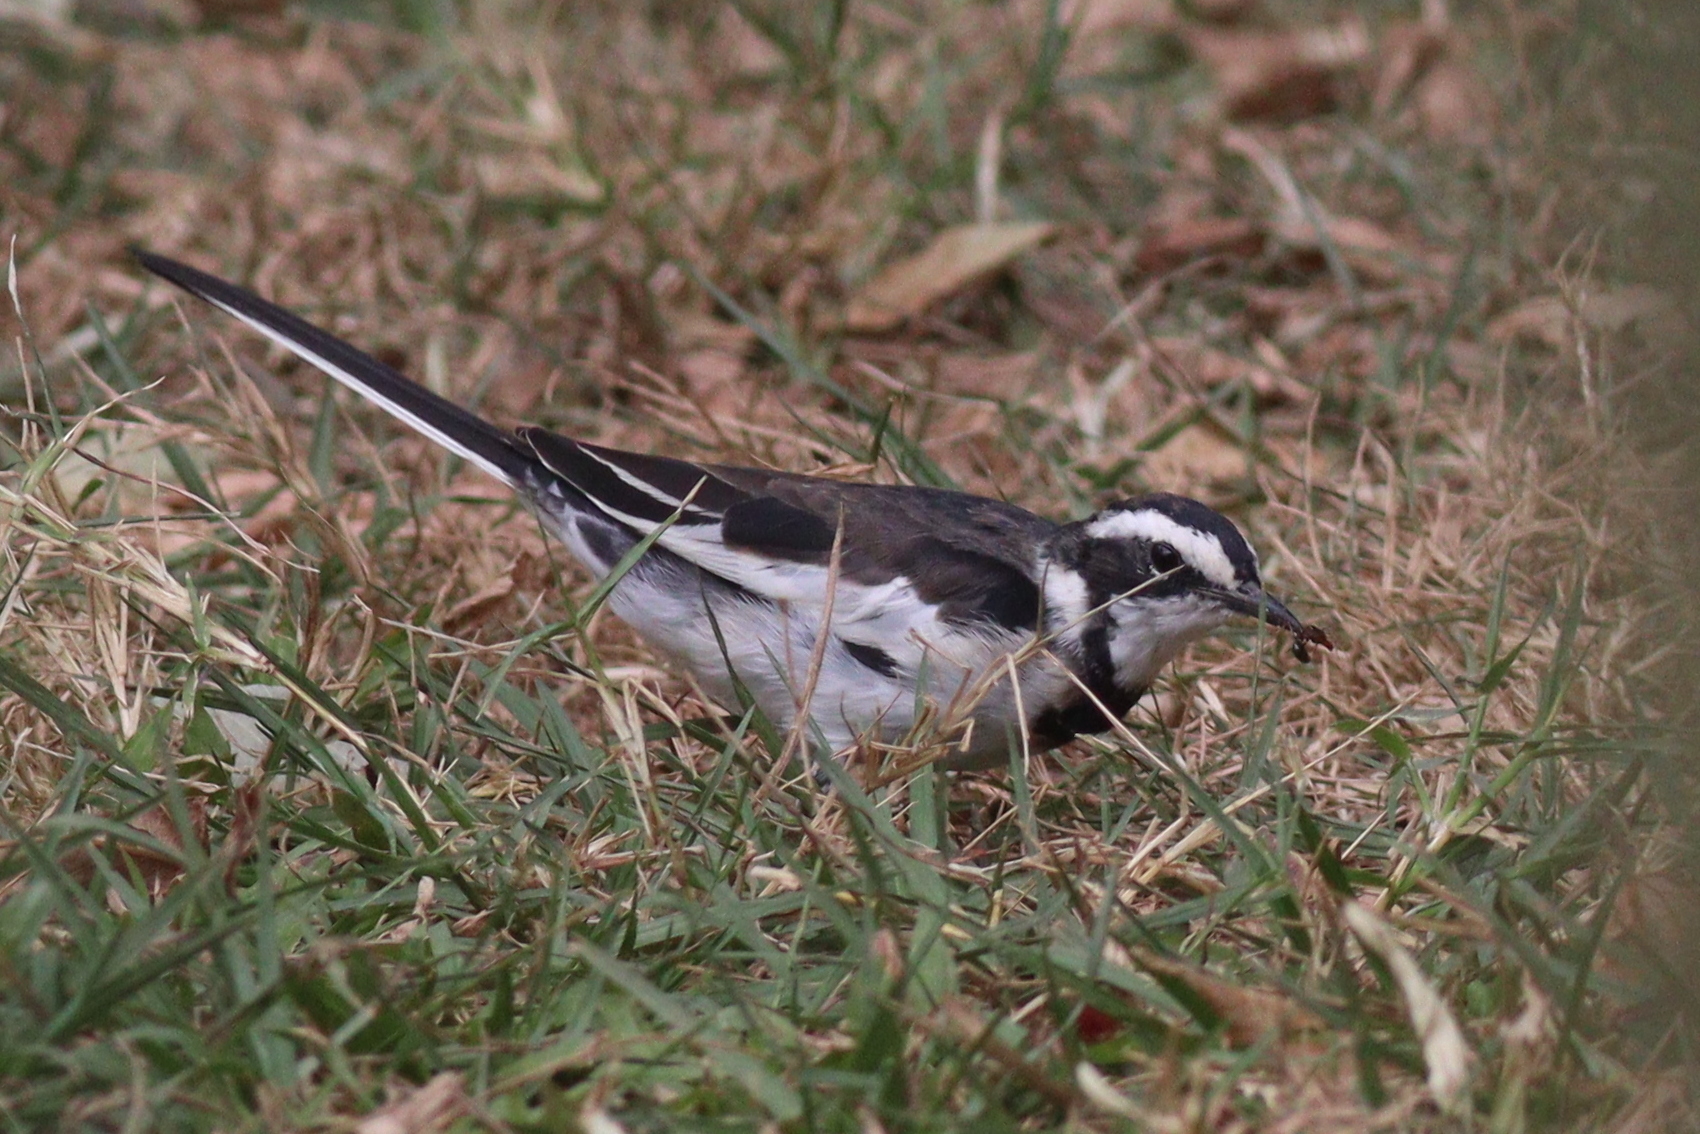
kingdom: Animalia
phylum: Chordata
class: Aves
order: Passeriformes
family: Motacillidae
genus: Motacilla
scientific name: Motacilla aguimp
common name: African pied wagtail
